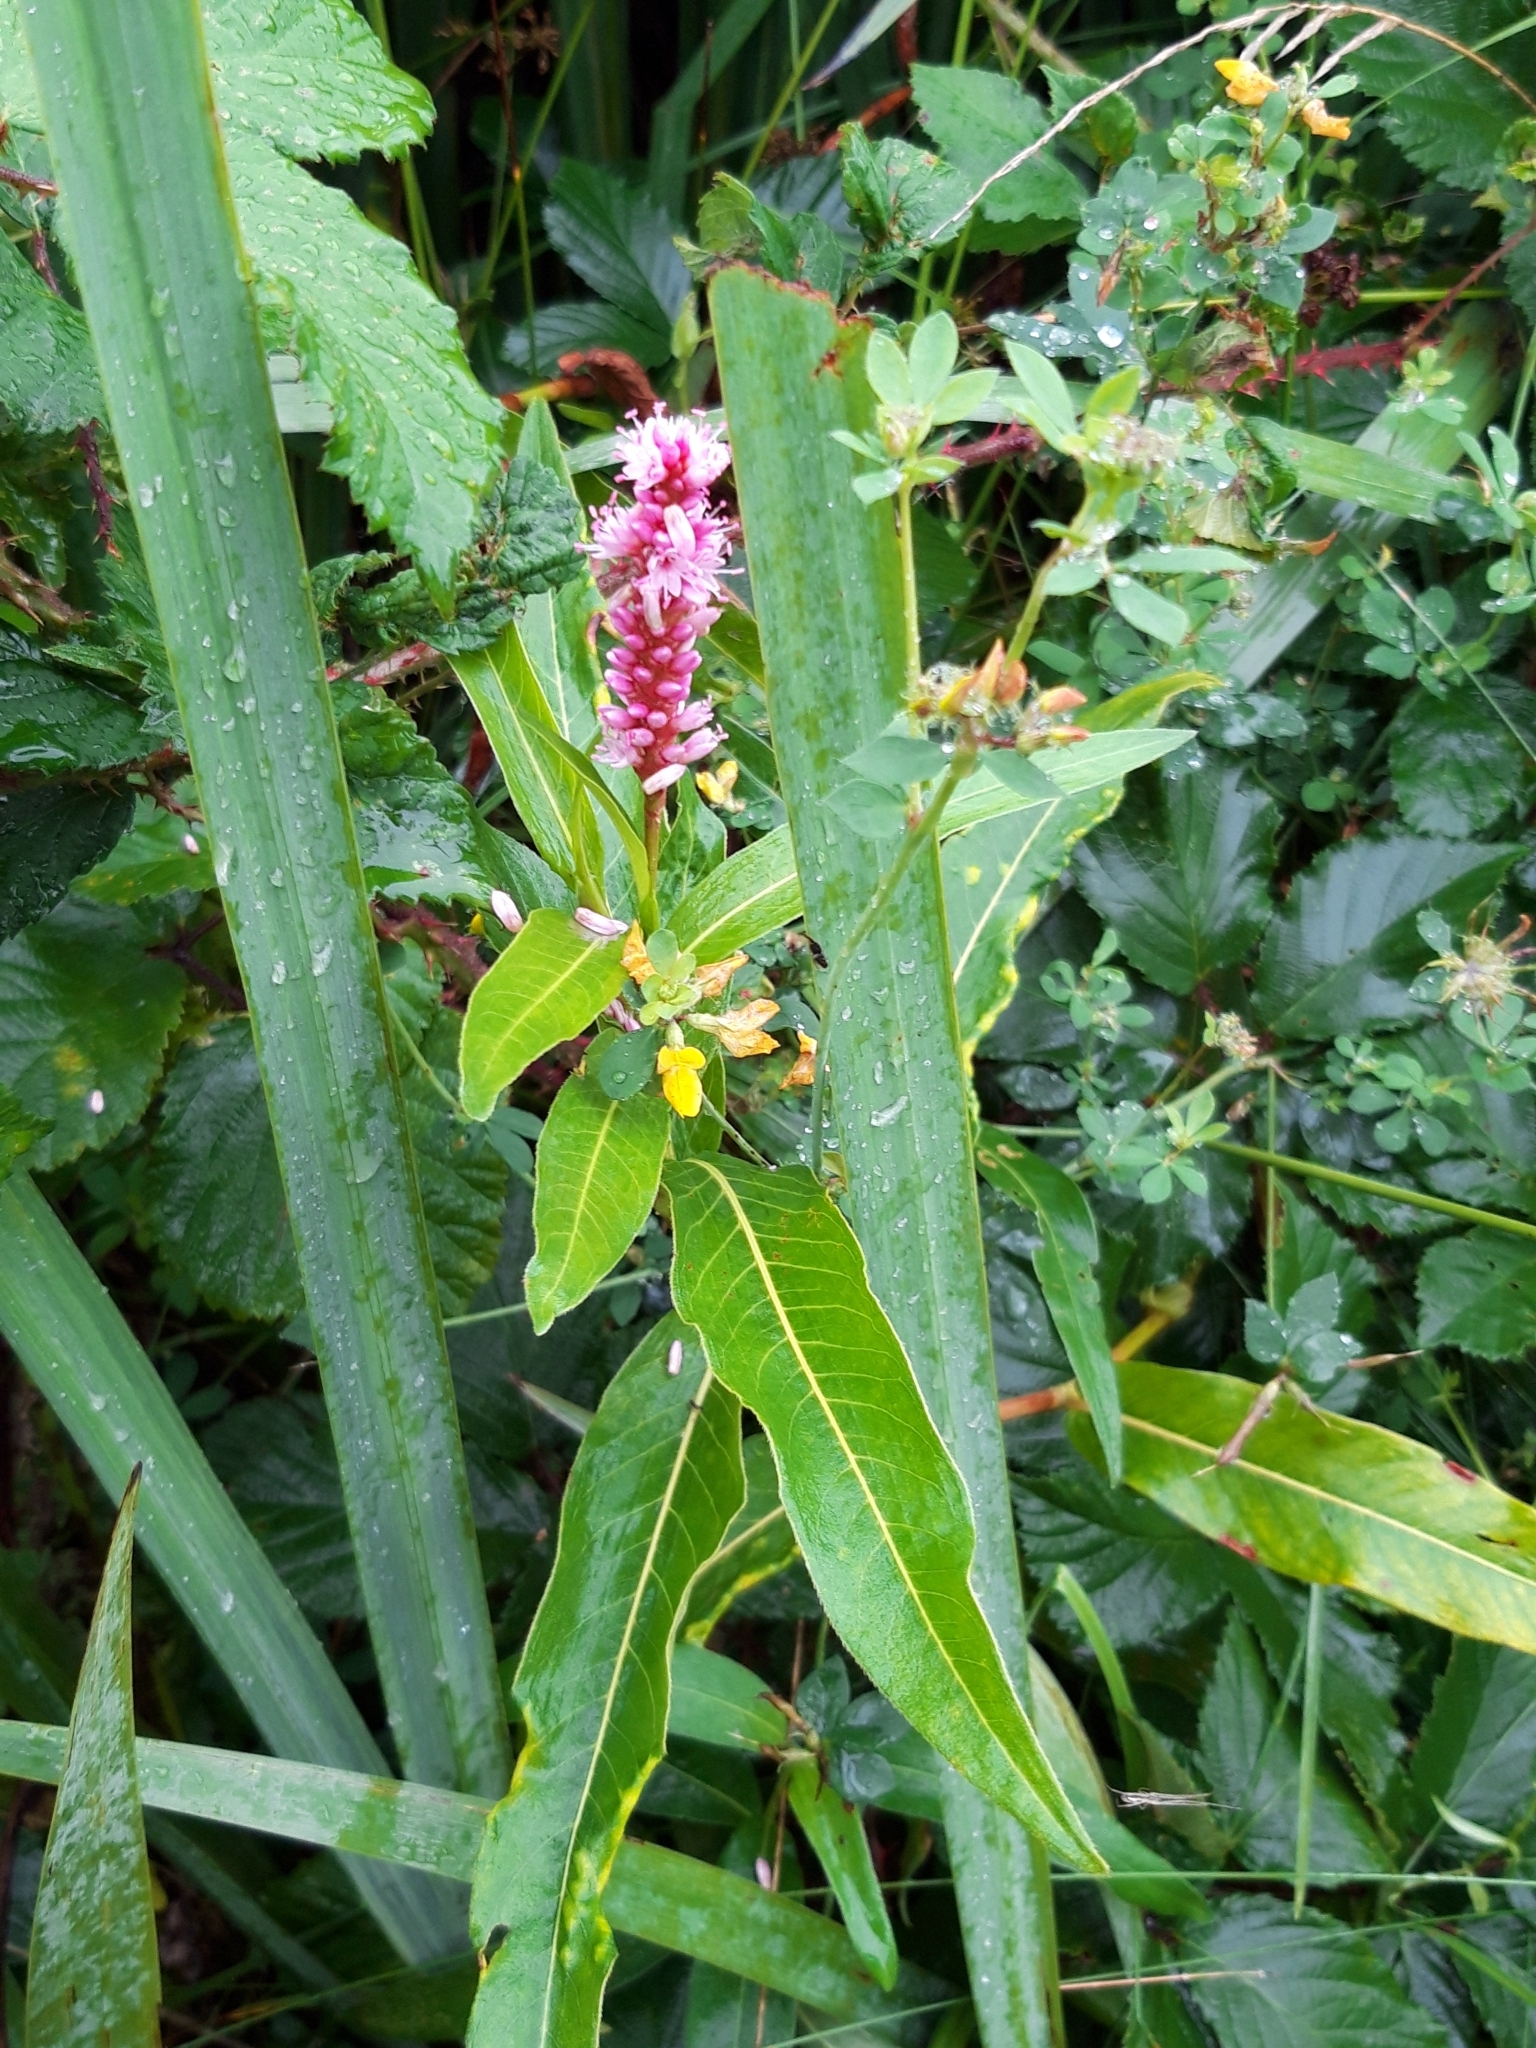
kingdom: Plantae
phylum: Tracheophyta
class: Magnoliopsida
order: Caryophyllales
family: Polygonaceae
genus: Persicaria
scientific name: Persicaria amphibia
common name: Amphibious bistort
